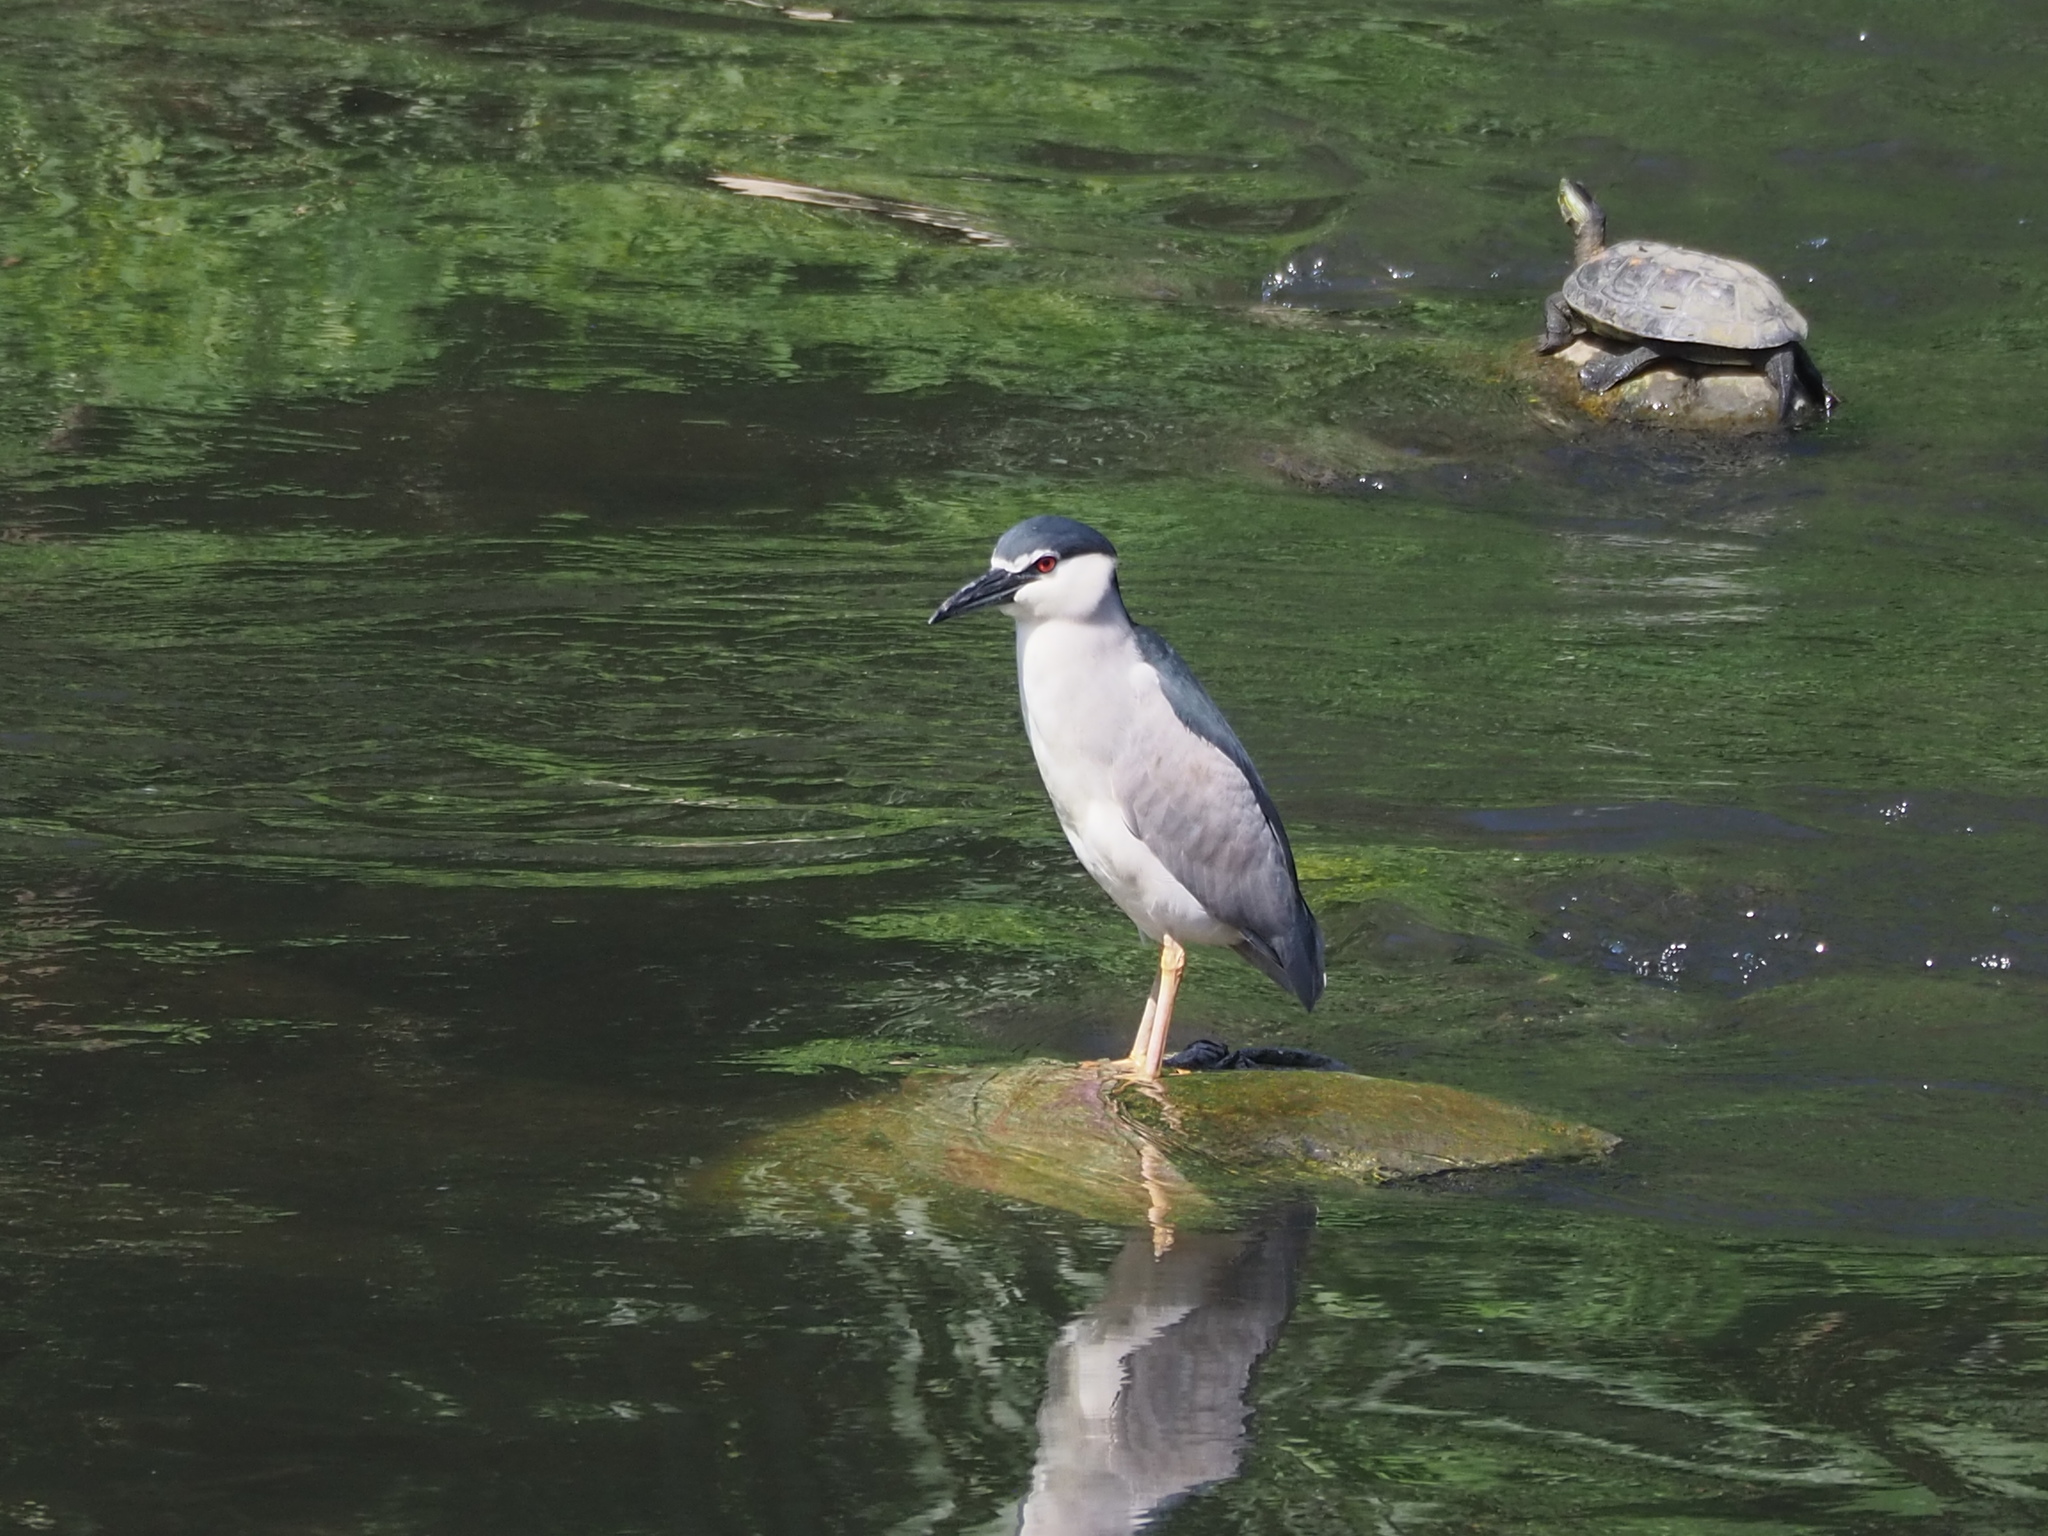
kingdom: Animalia
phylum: Chordata
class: Aves
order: Pelecaniformes
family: Ardeidae
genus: Nycticorax
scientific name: Nycticorax nycticorax
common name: Black-crowned night heron
